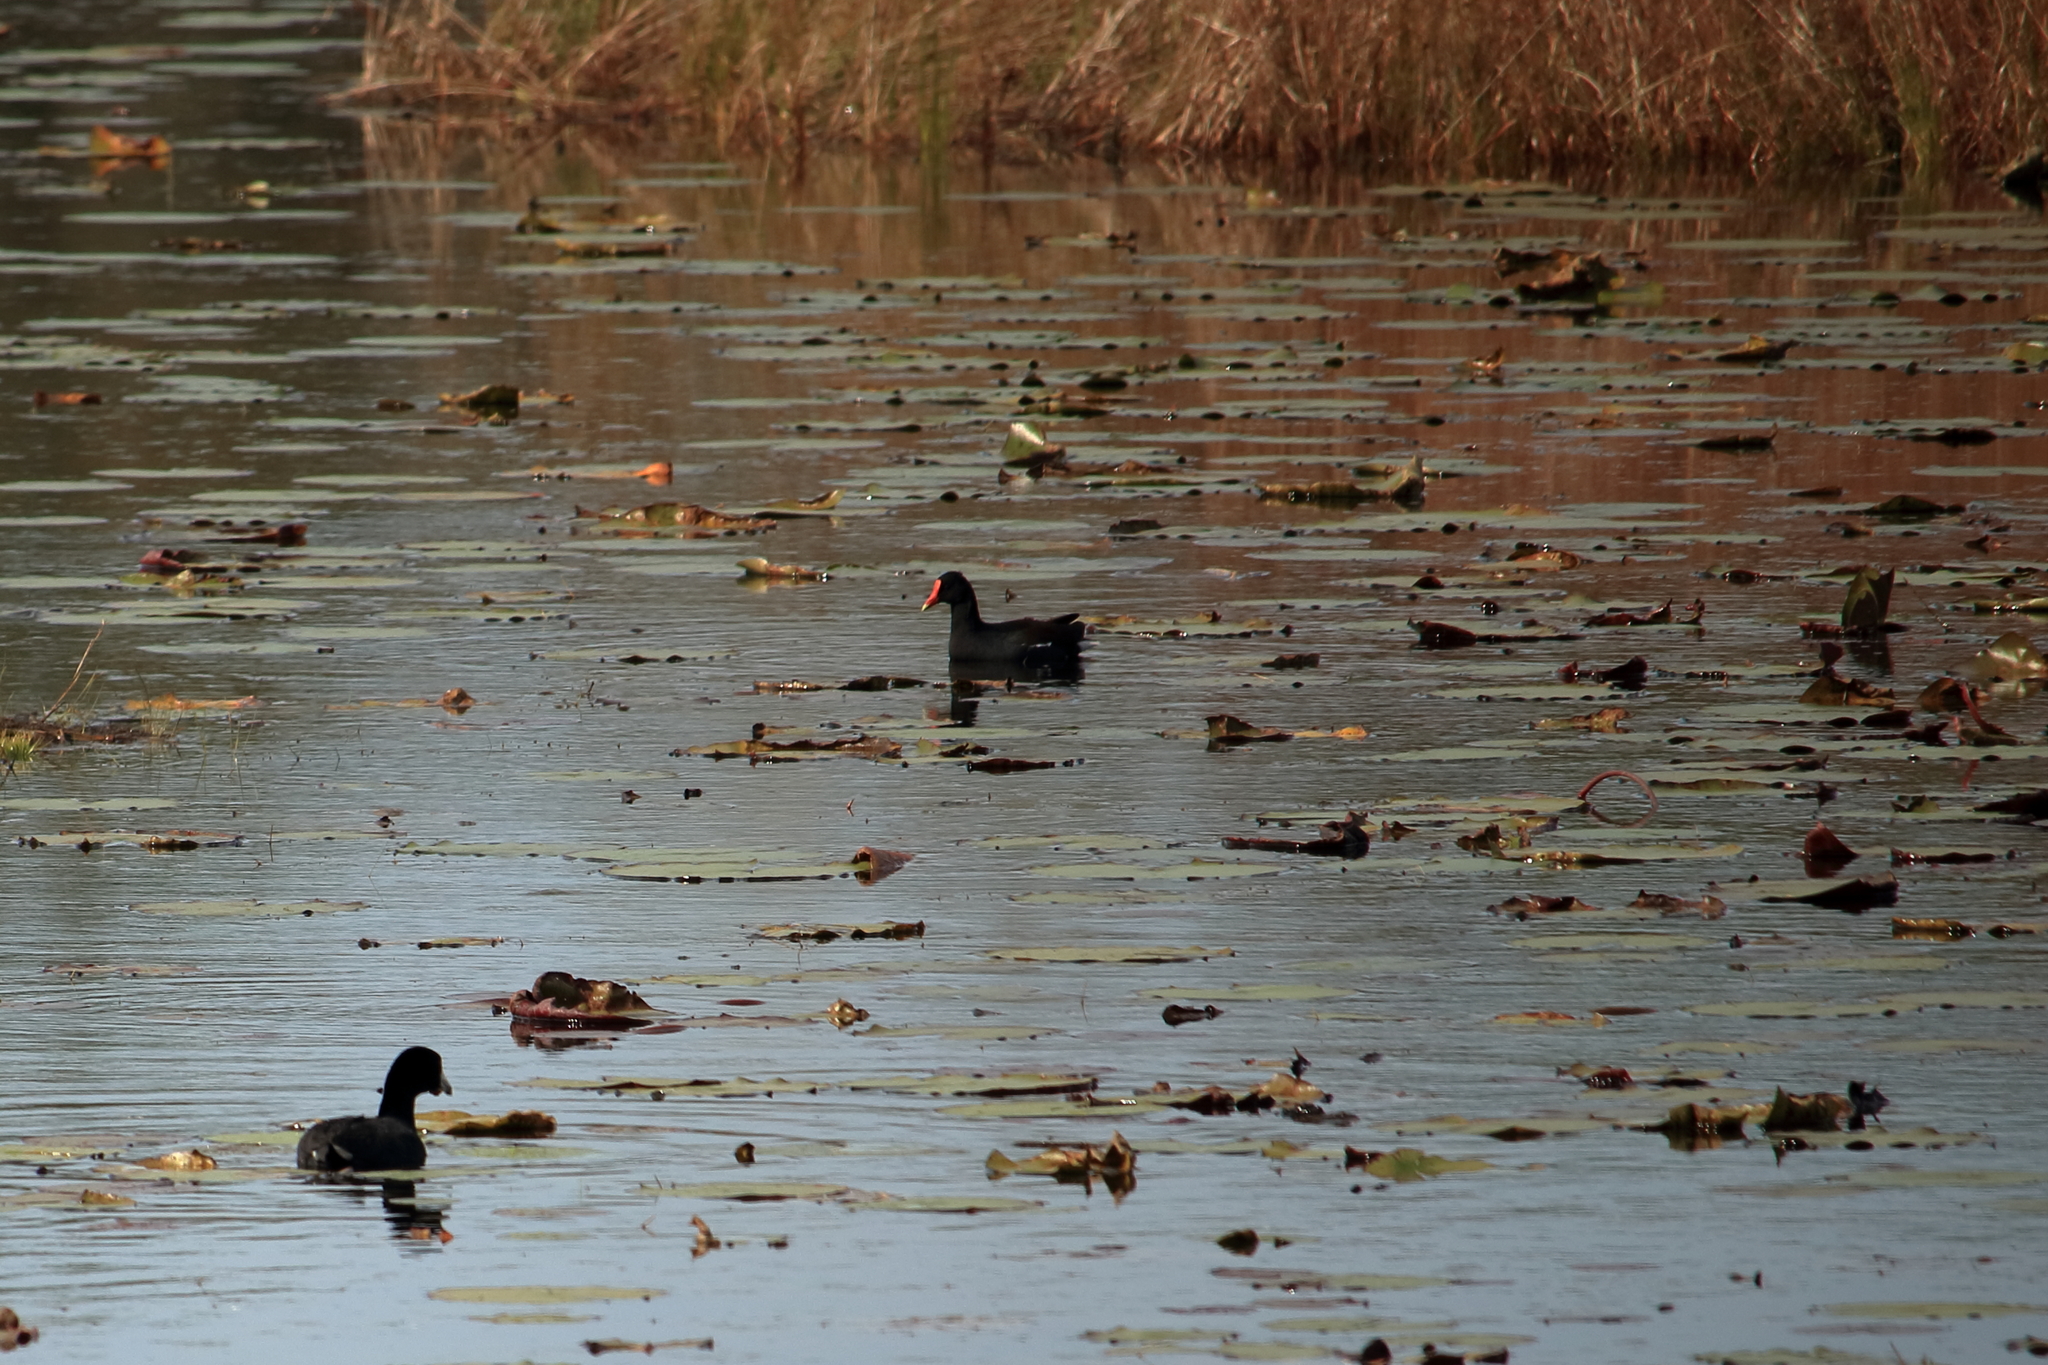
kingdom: Animalia
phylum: Chordata
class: Aves
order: Gruiformes
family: Rallidae
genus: Gallinula
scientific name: Gallinula chloropus
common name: Common moorhen
